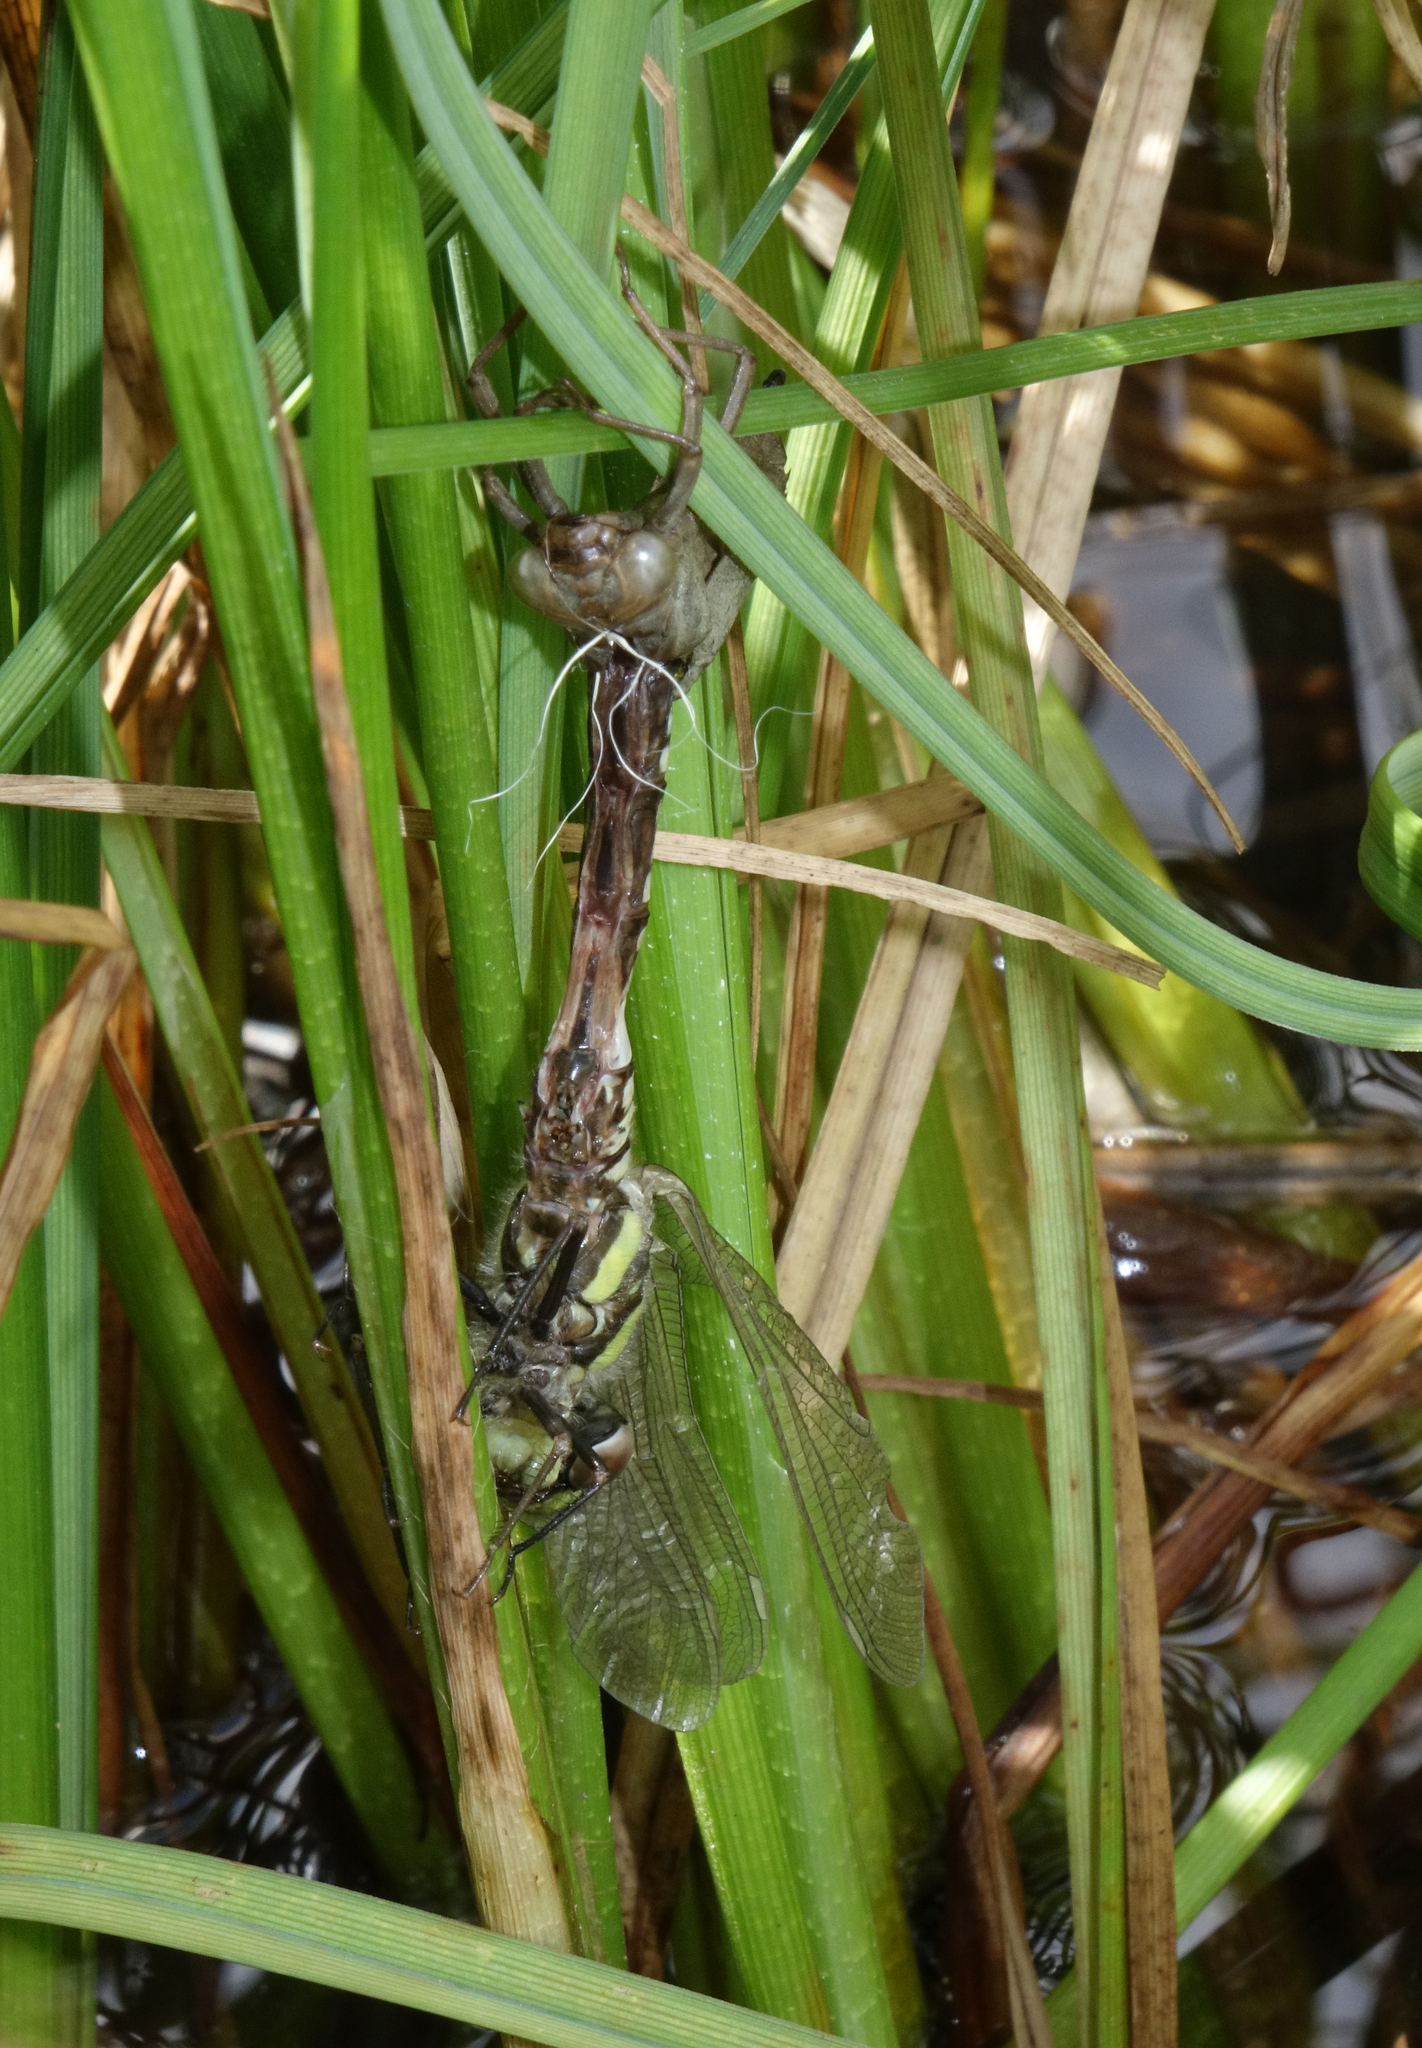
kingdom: Animalia
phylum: Arthropoda
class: Insecta
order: Odonata
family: Aeshnidae
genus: Aeshna
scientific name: Aeshna juncea
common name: Moorland hawker
